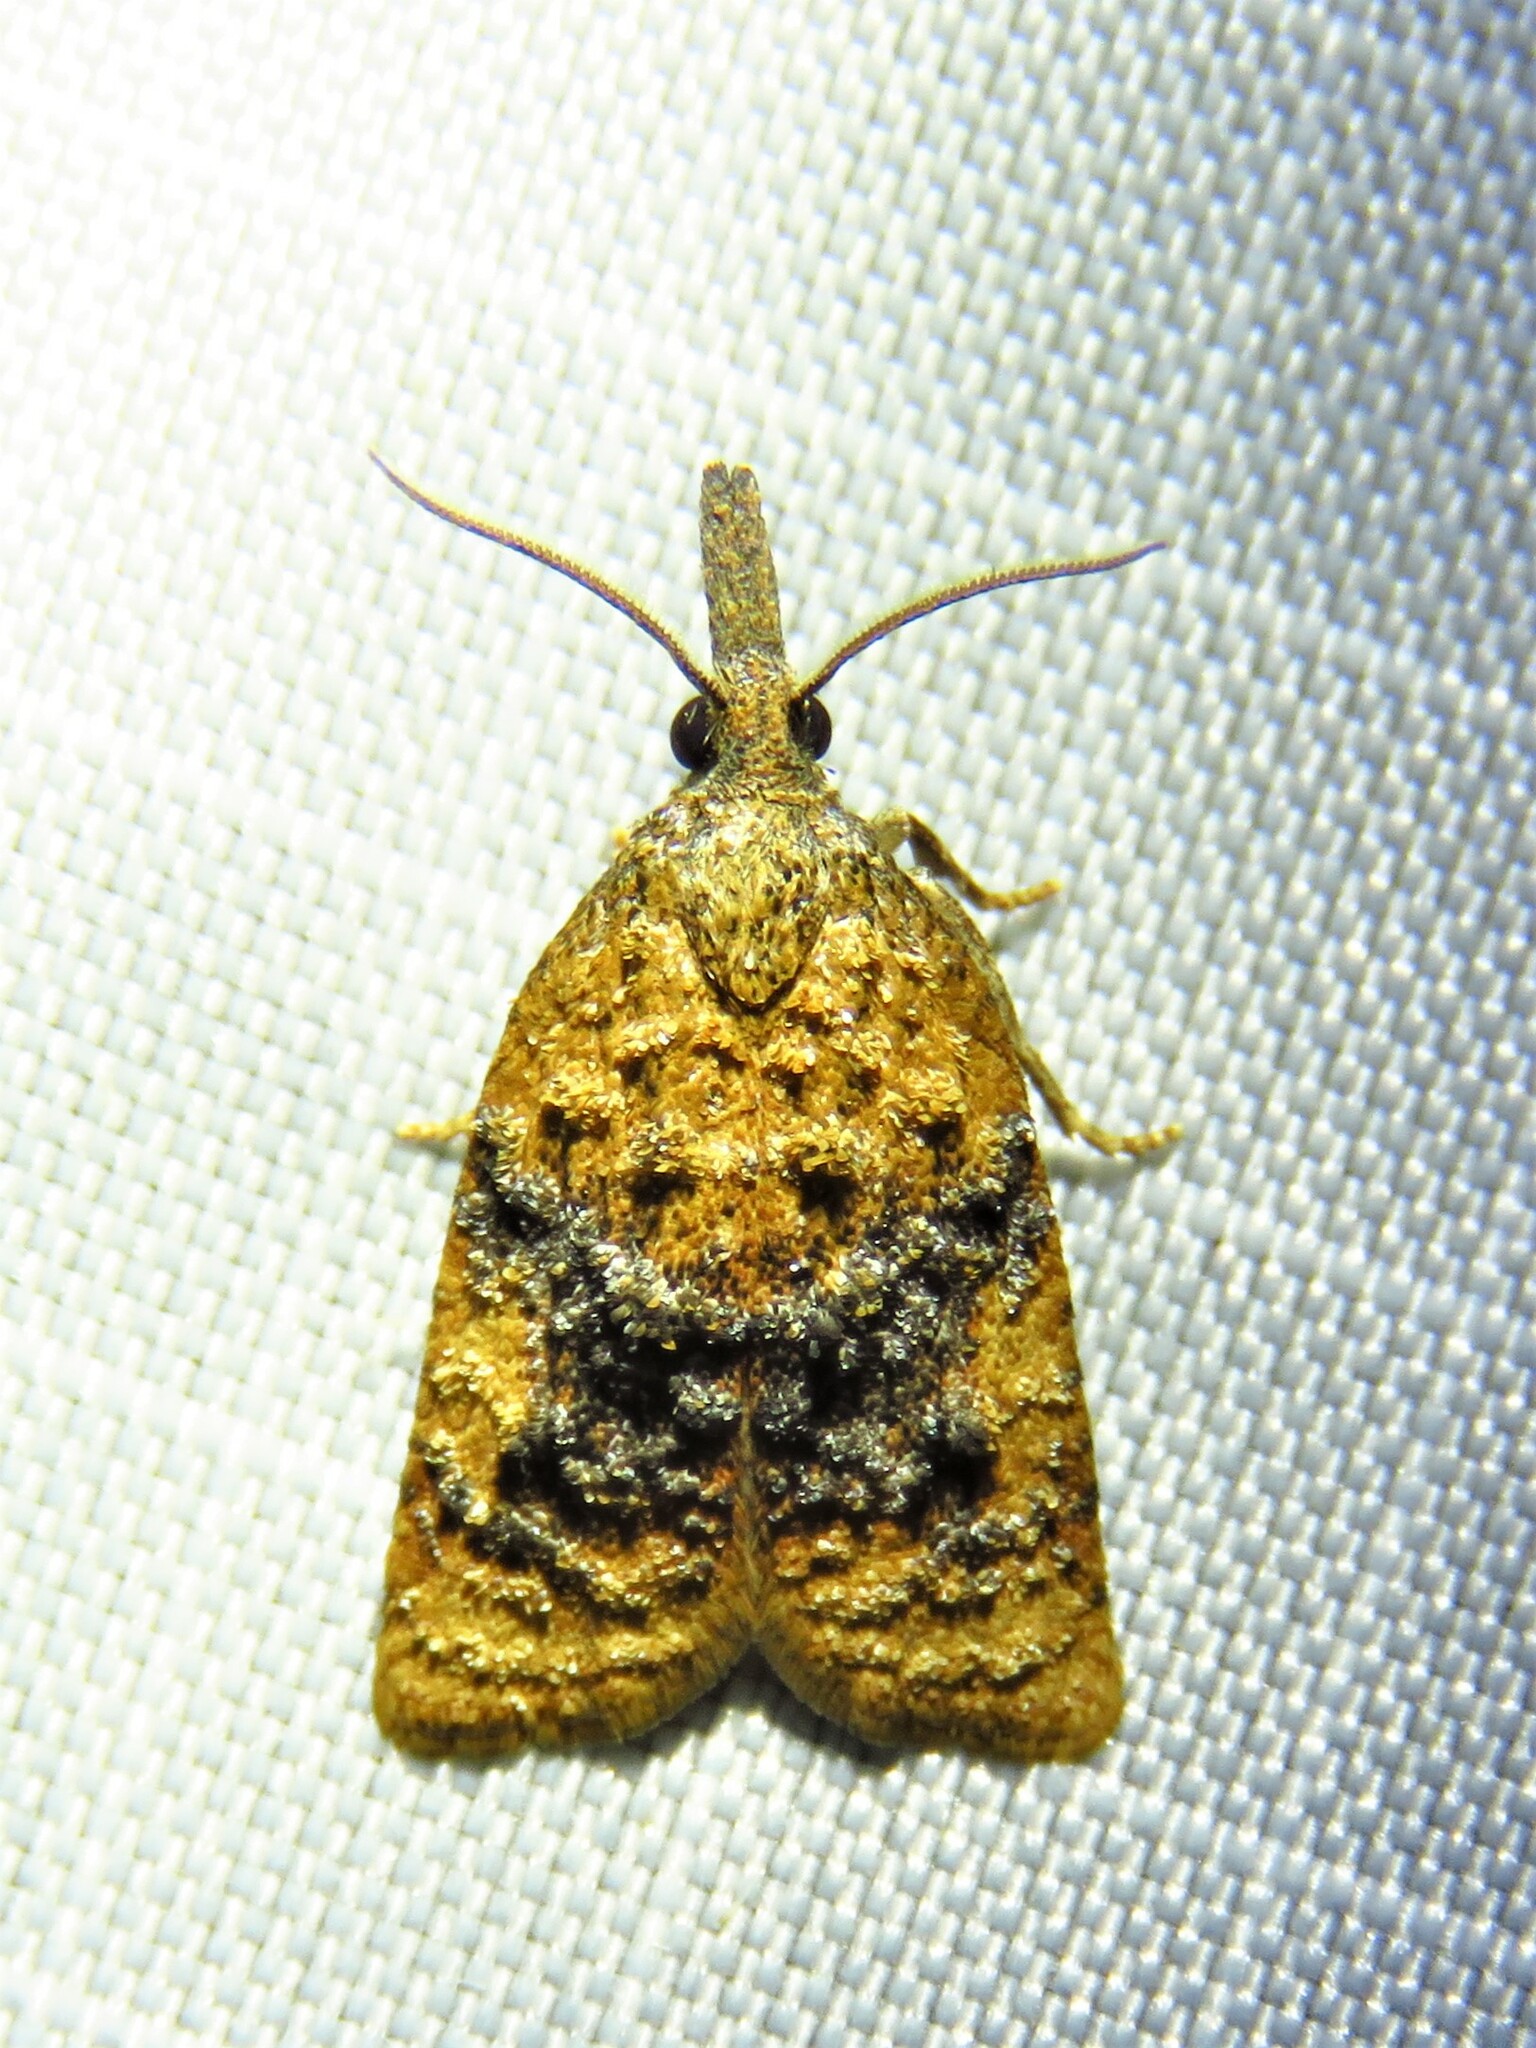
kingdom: Animalia
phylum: Arthropoda
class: Insecta
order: Lepidoptera
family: Tortricidae
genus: Platynota
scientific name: Platynota nigrocervina
